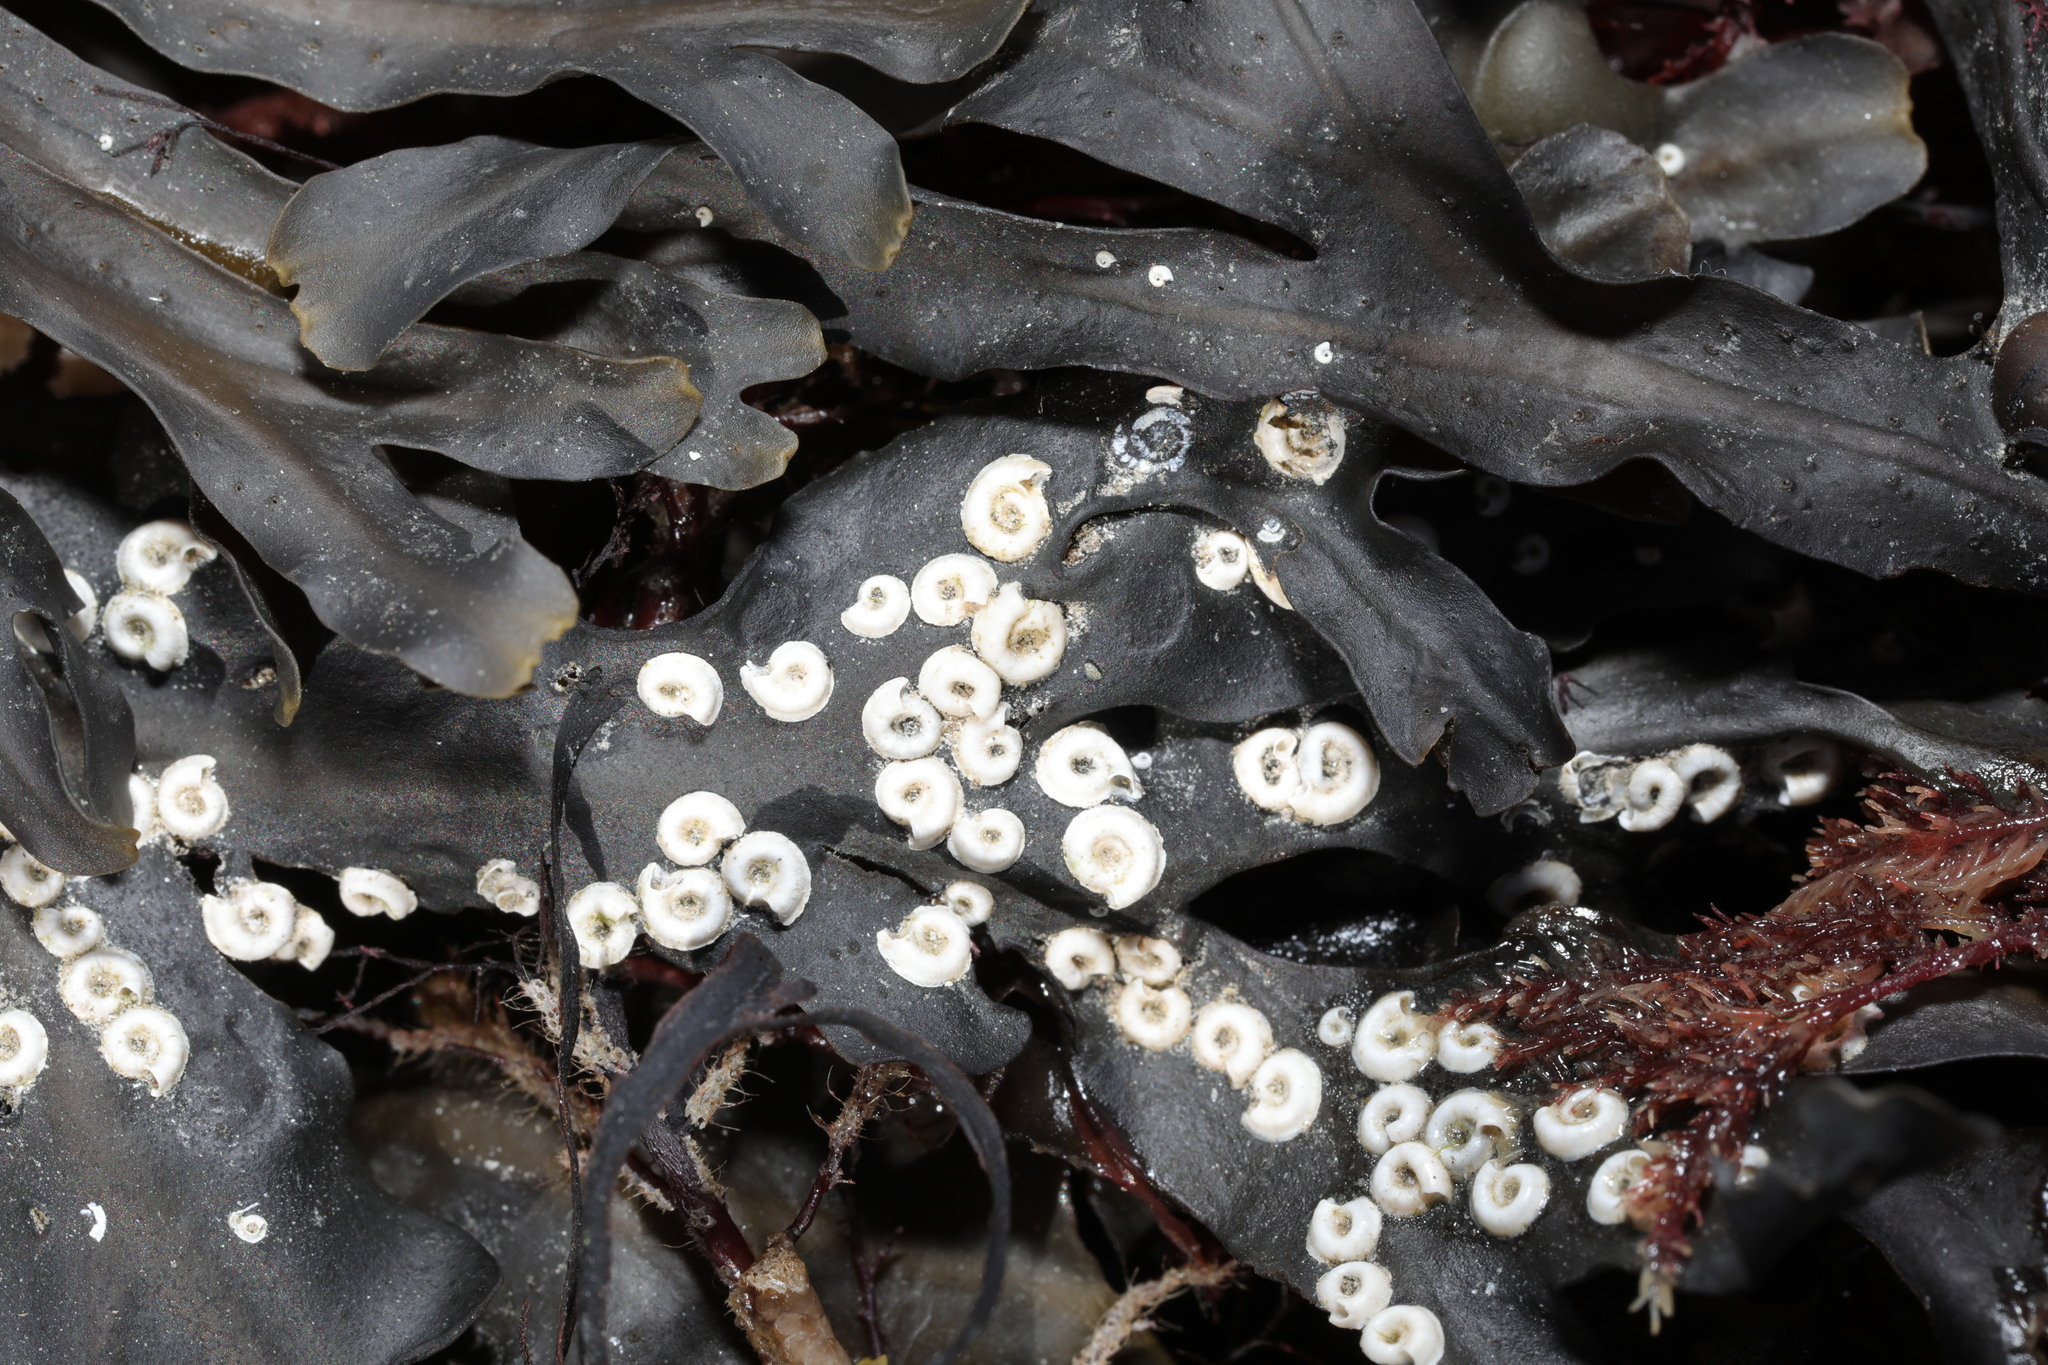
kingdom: Animalia
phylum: Annelida
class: Polychaeta
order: Sabellida
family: Serpulidae
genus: Spirorbis
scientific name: Spirorbis spirorbis
